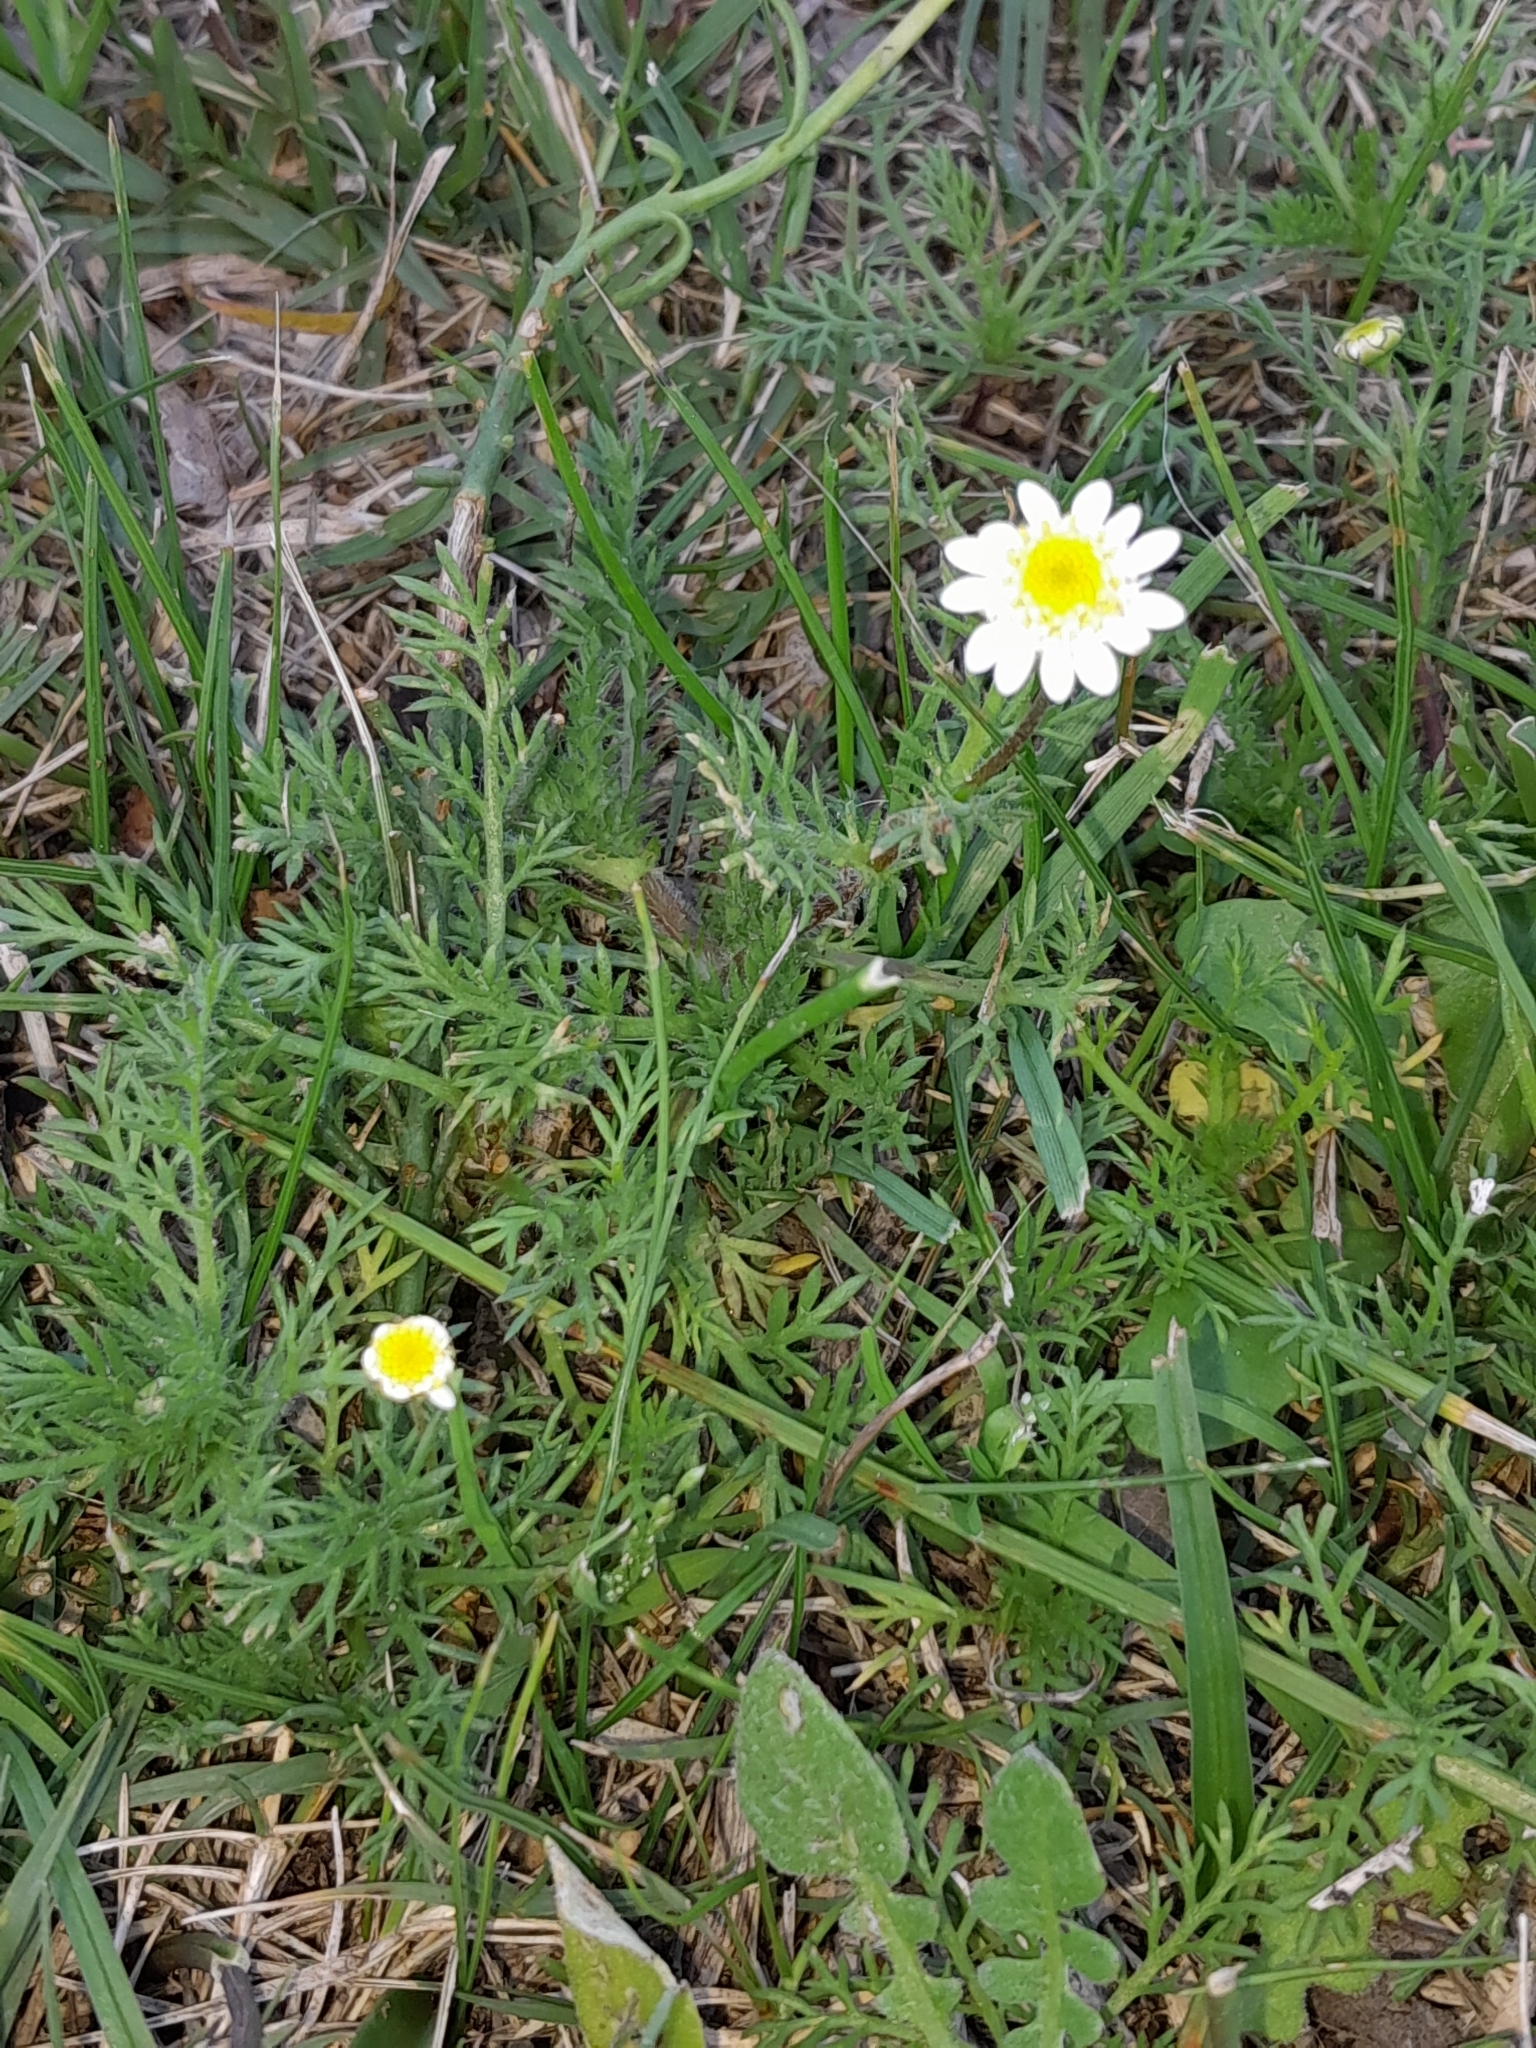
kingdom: Plantae
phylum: Tracheophyta
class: Magnoliopsida
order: Asterales
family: Asteraceae
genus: Cotula
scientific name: Cotula turbinata
